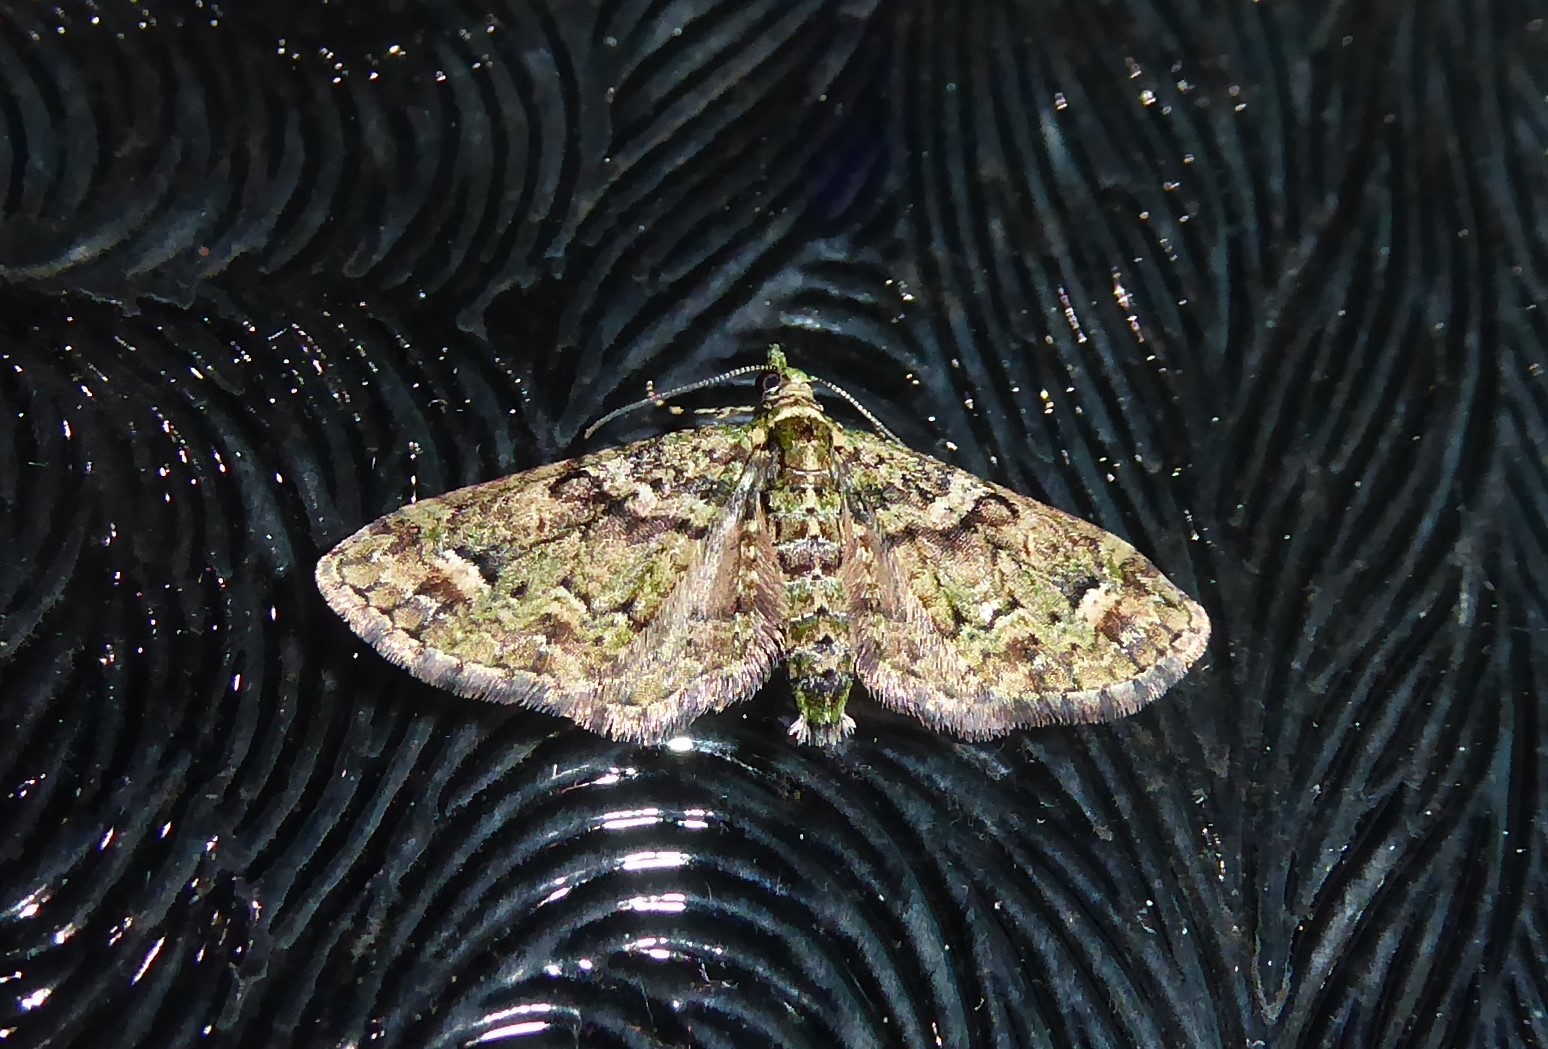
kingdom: Animalia
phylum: Arthropoda
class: Insecta
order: Lepidoptera
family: Geometridae
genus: Idaea
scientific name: Idaea mutanda
